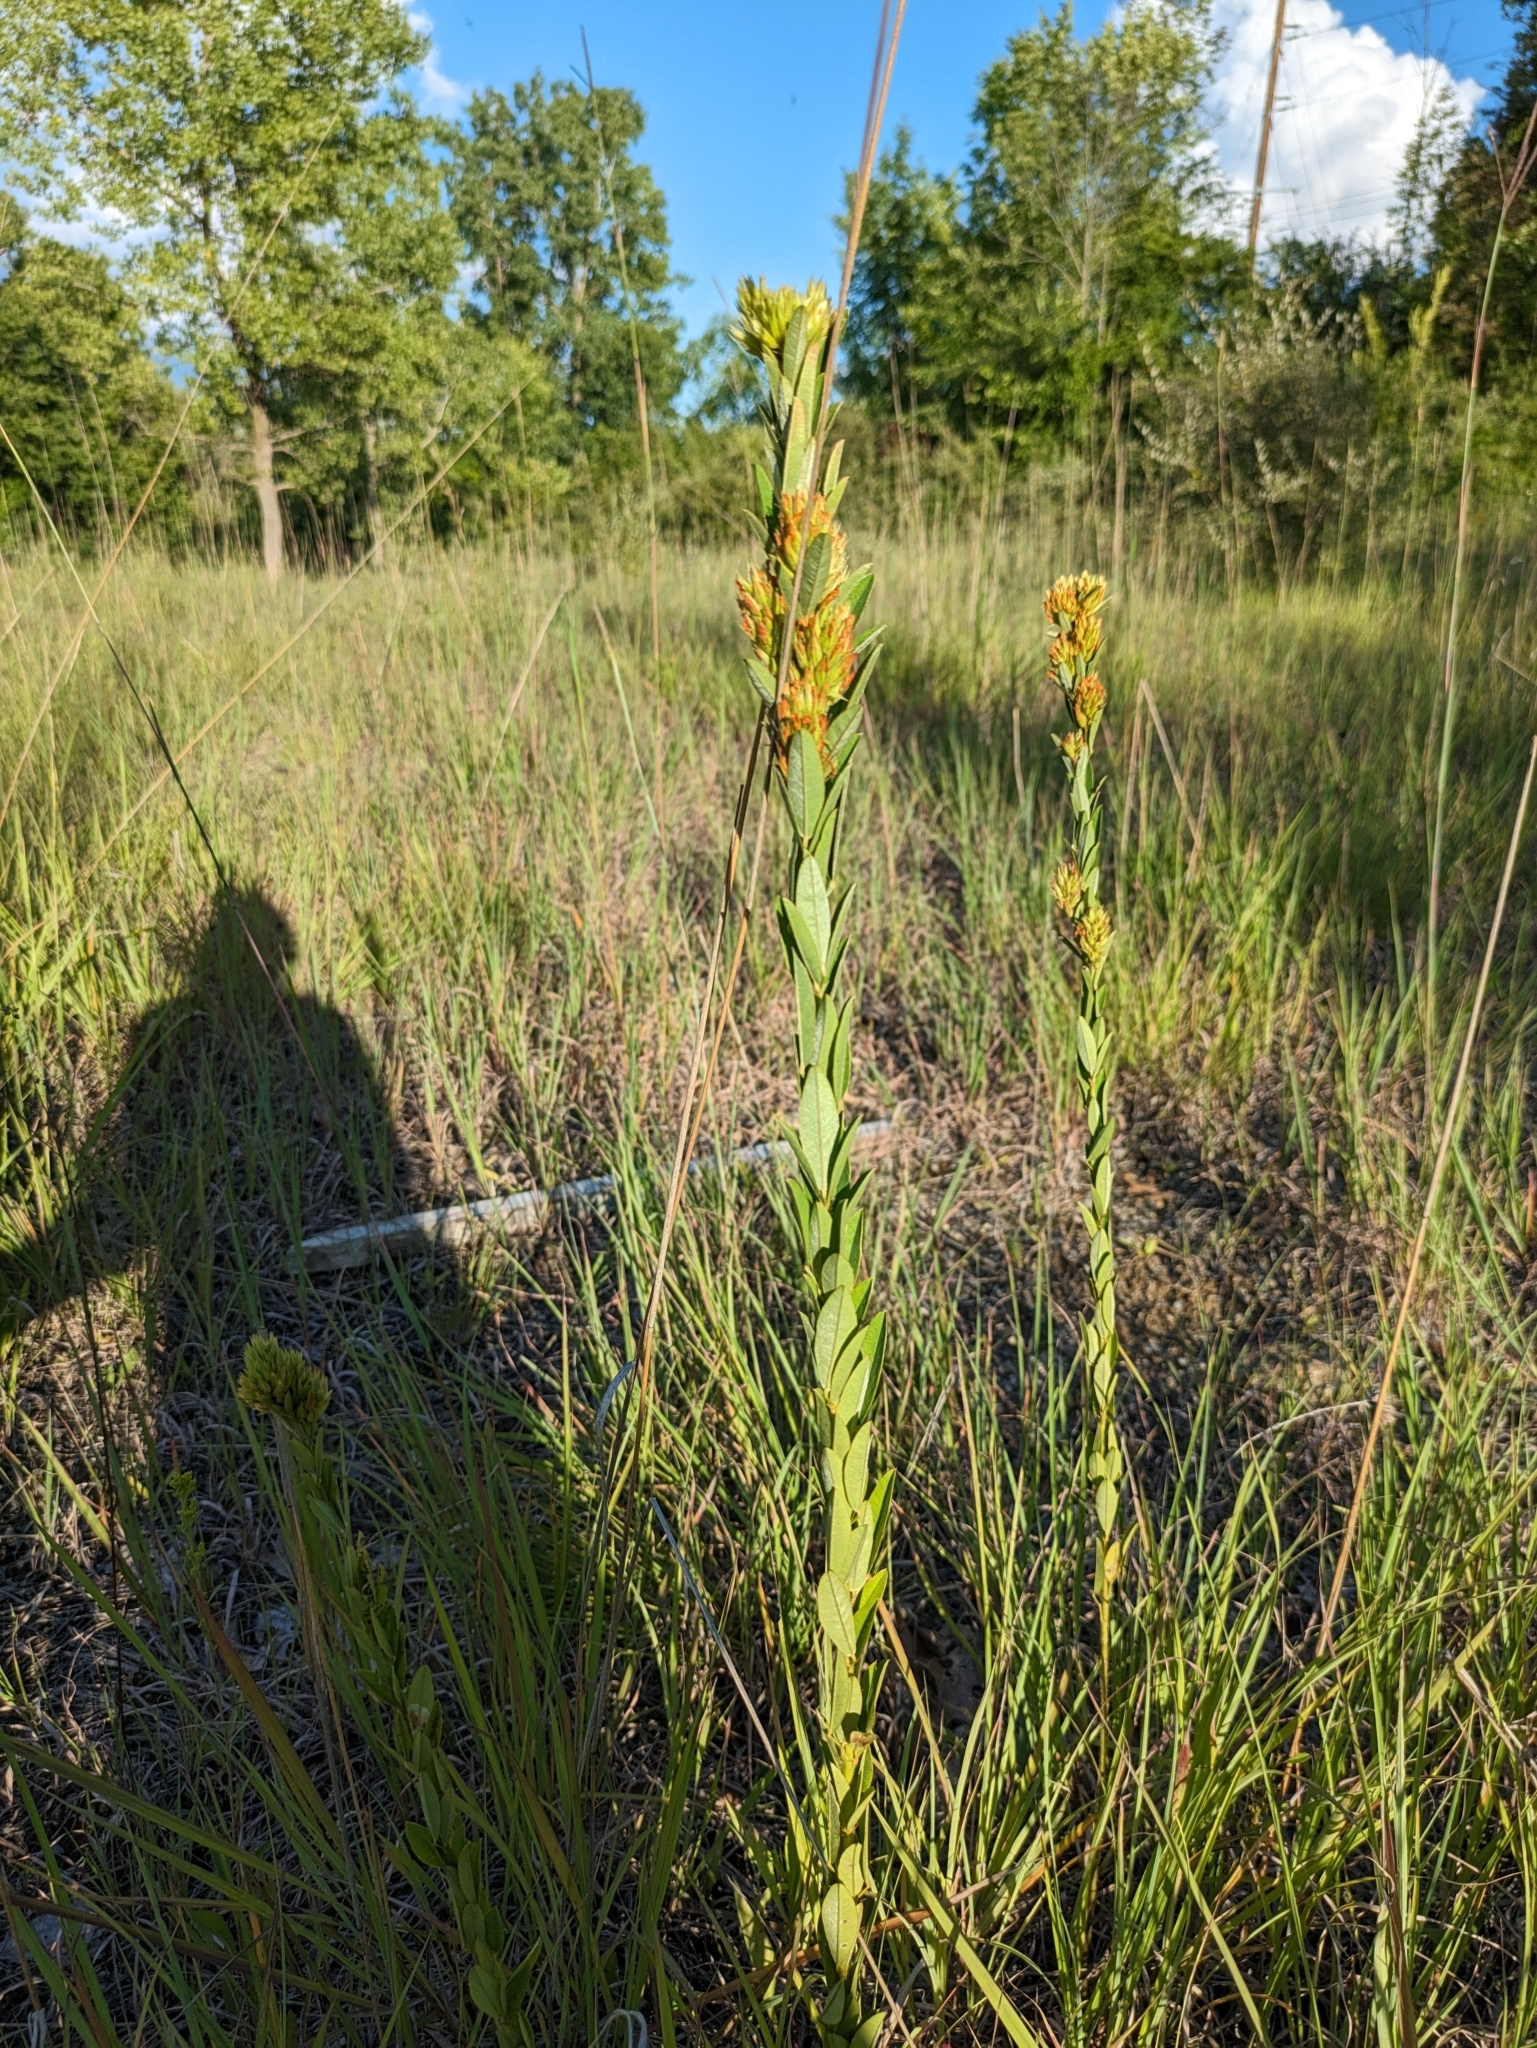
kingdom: Plantae
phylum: Tracheophyta
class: Magnoliopsida
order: Fabales
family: Fabaceae
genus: Lespedeza
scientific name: Lespedeza capitata
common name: Dusty clover
